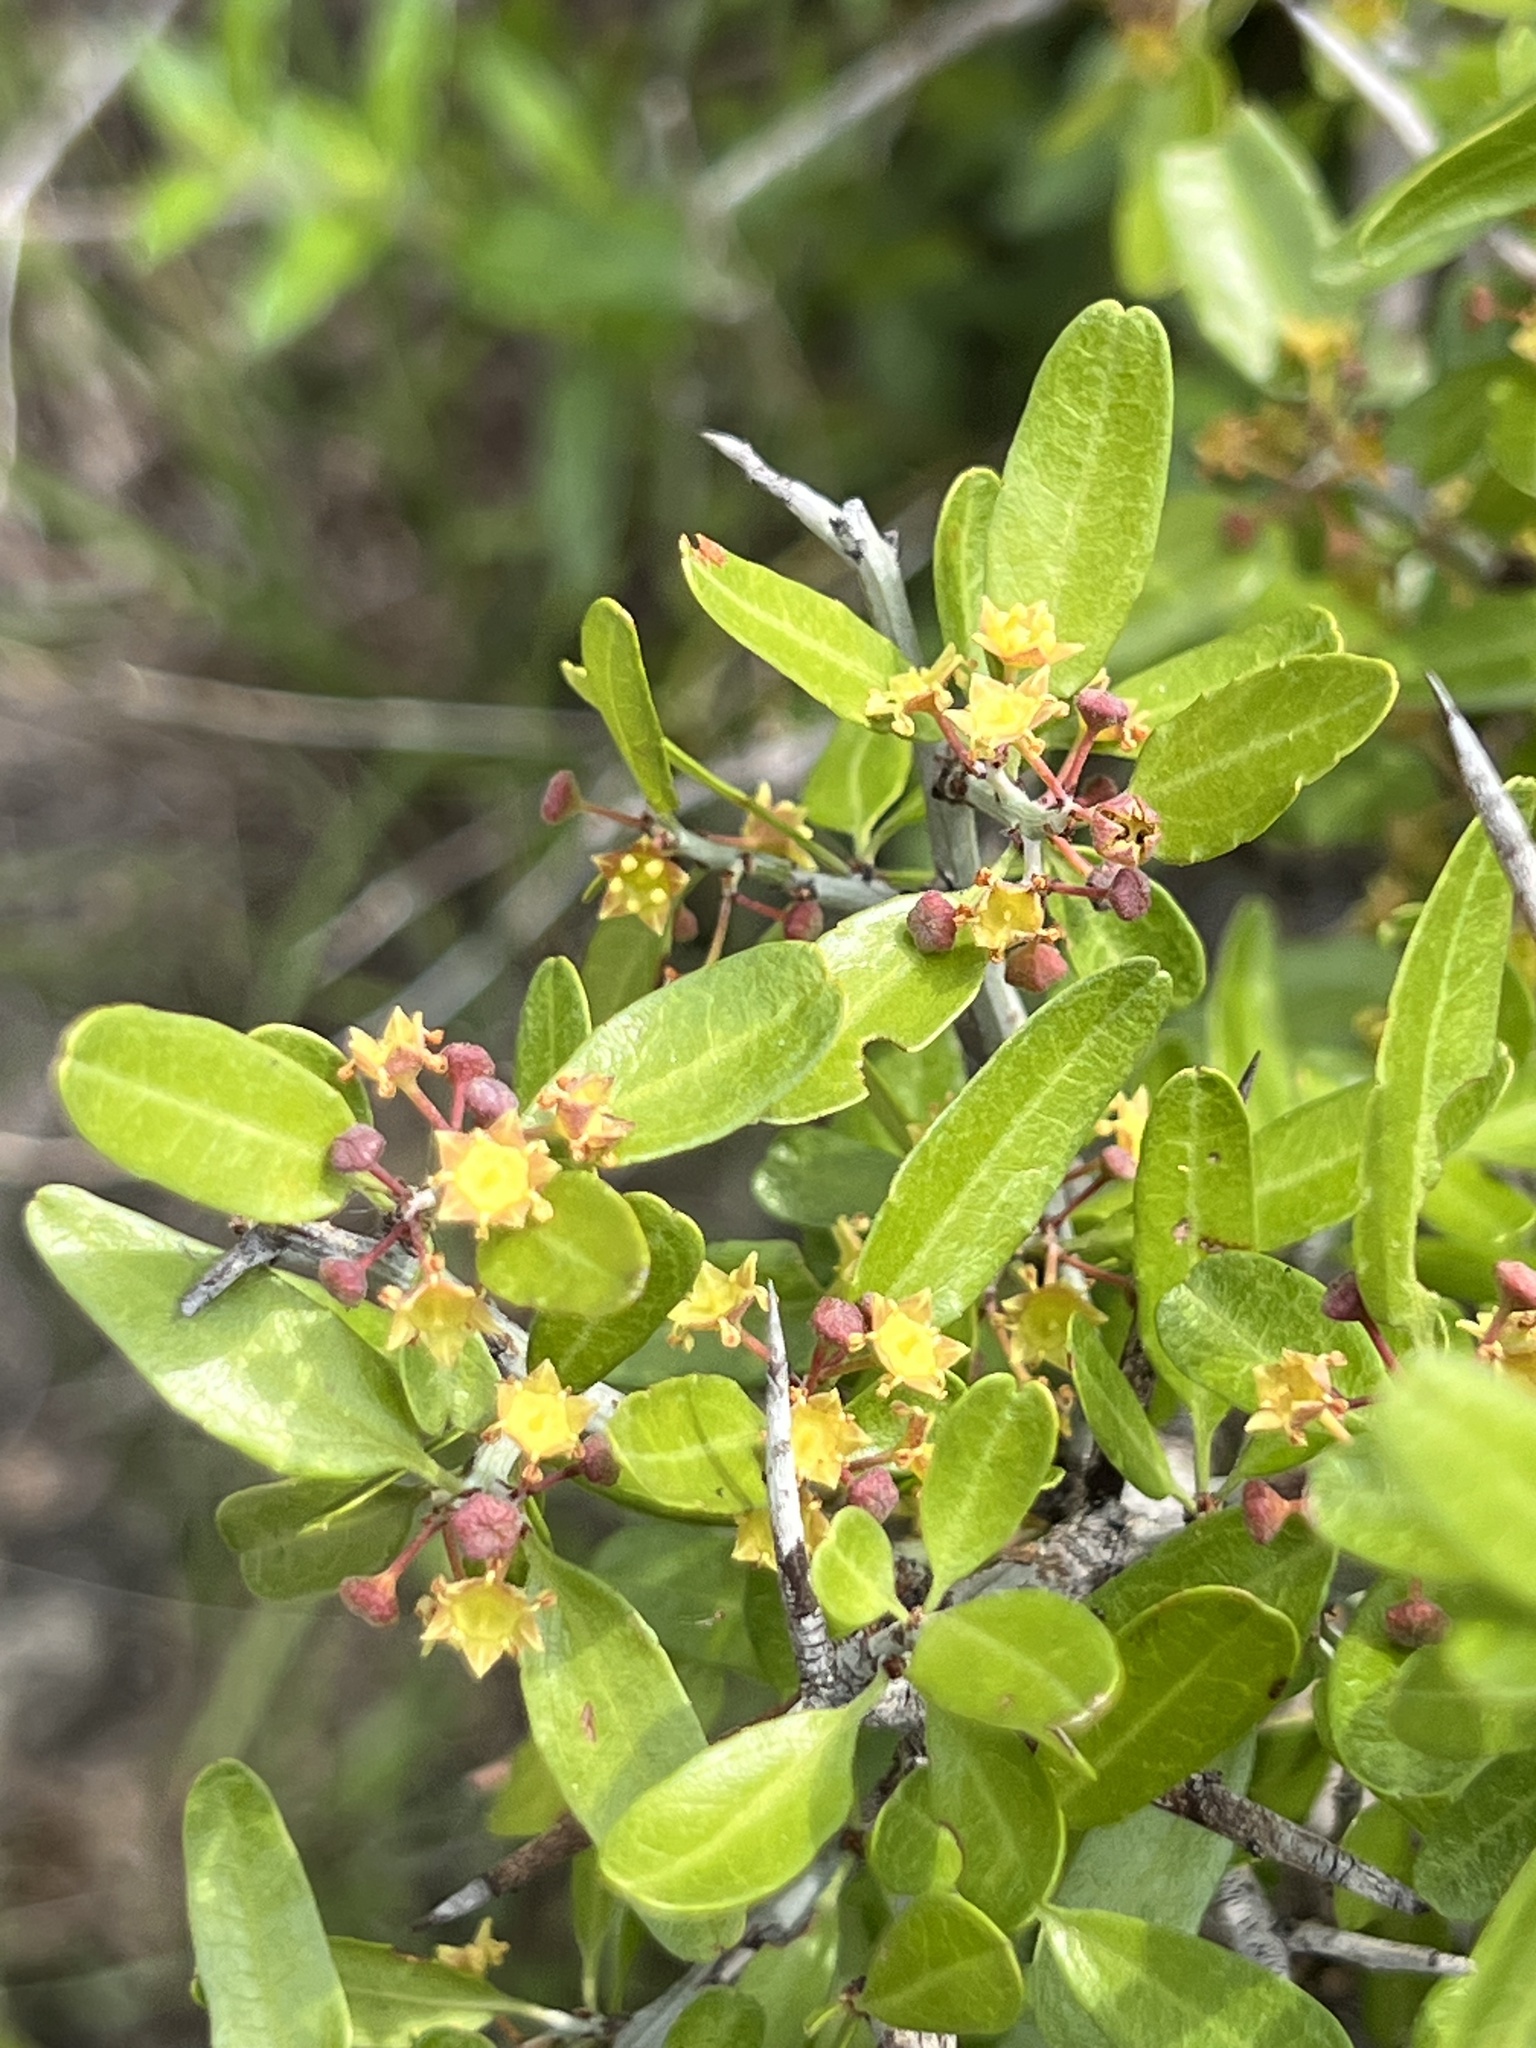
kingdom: Plantae
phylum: Tracheophyta
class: Magnoliopsida
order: Rosales
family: Rhamnaceae
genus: Sarcomphalus
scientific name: Sarcomphalus obtusifolius
